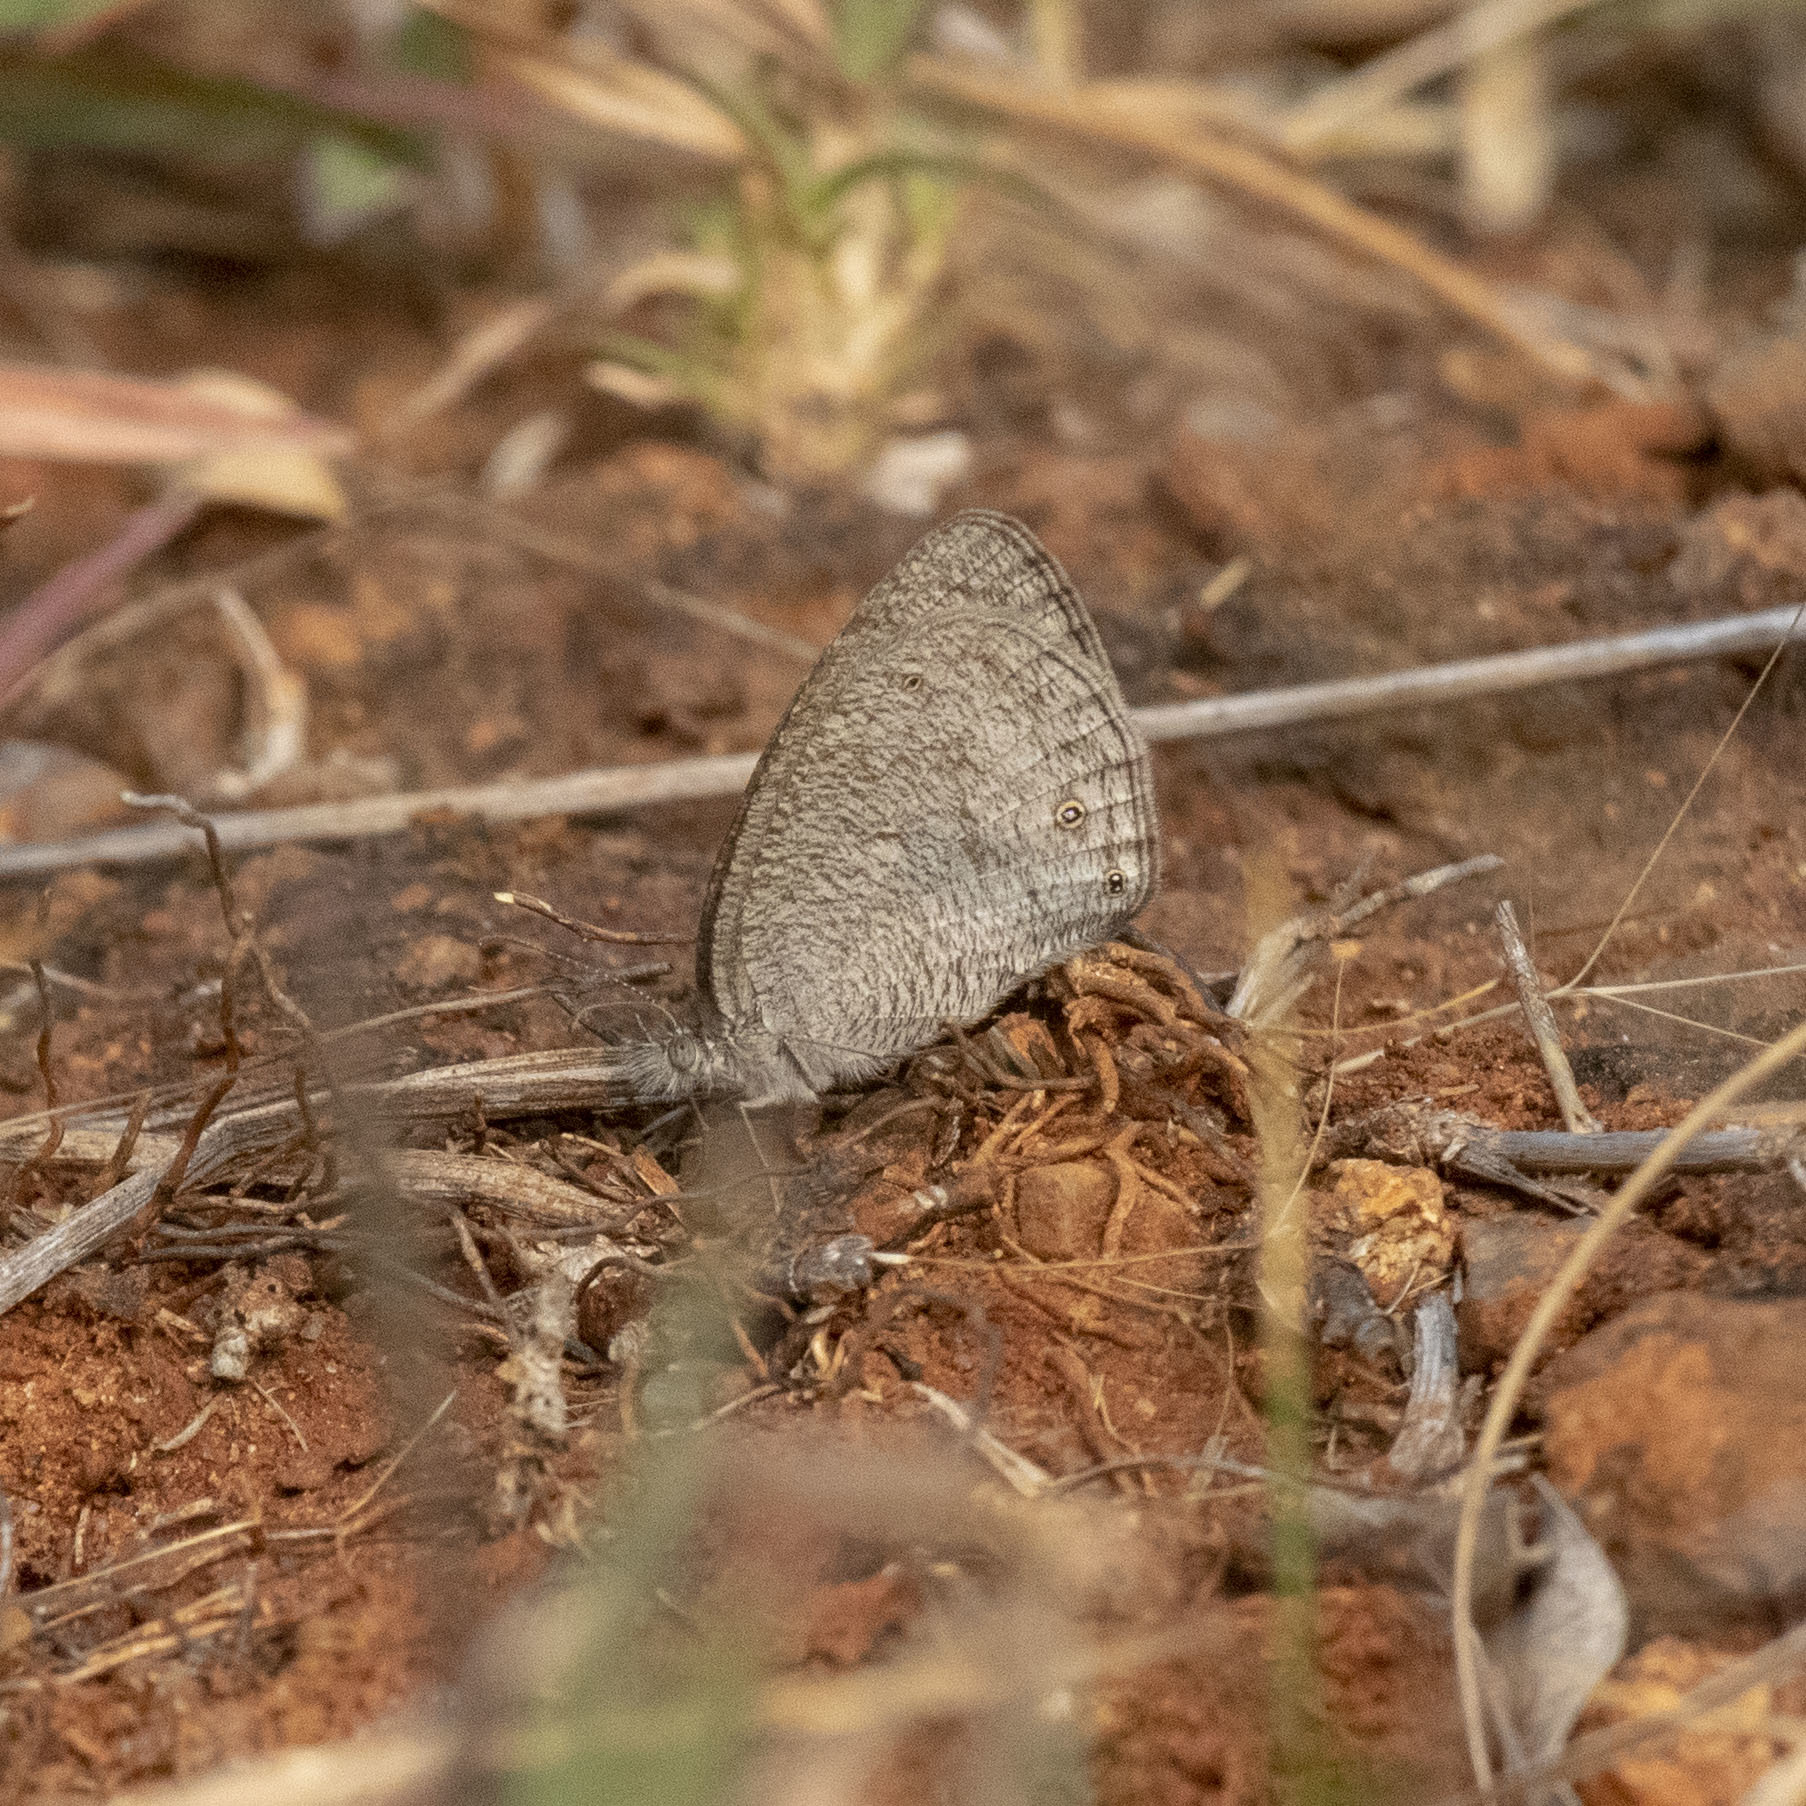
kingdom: Animalia
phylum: Arthropoda
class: Insecta
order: Lepidoptera
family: Nymphalidae
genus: Ypthima
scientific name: Ypthima asterope
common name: African ringlet
